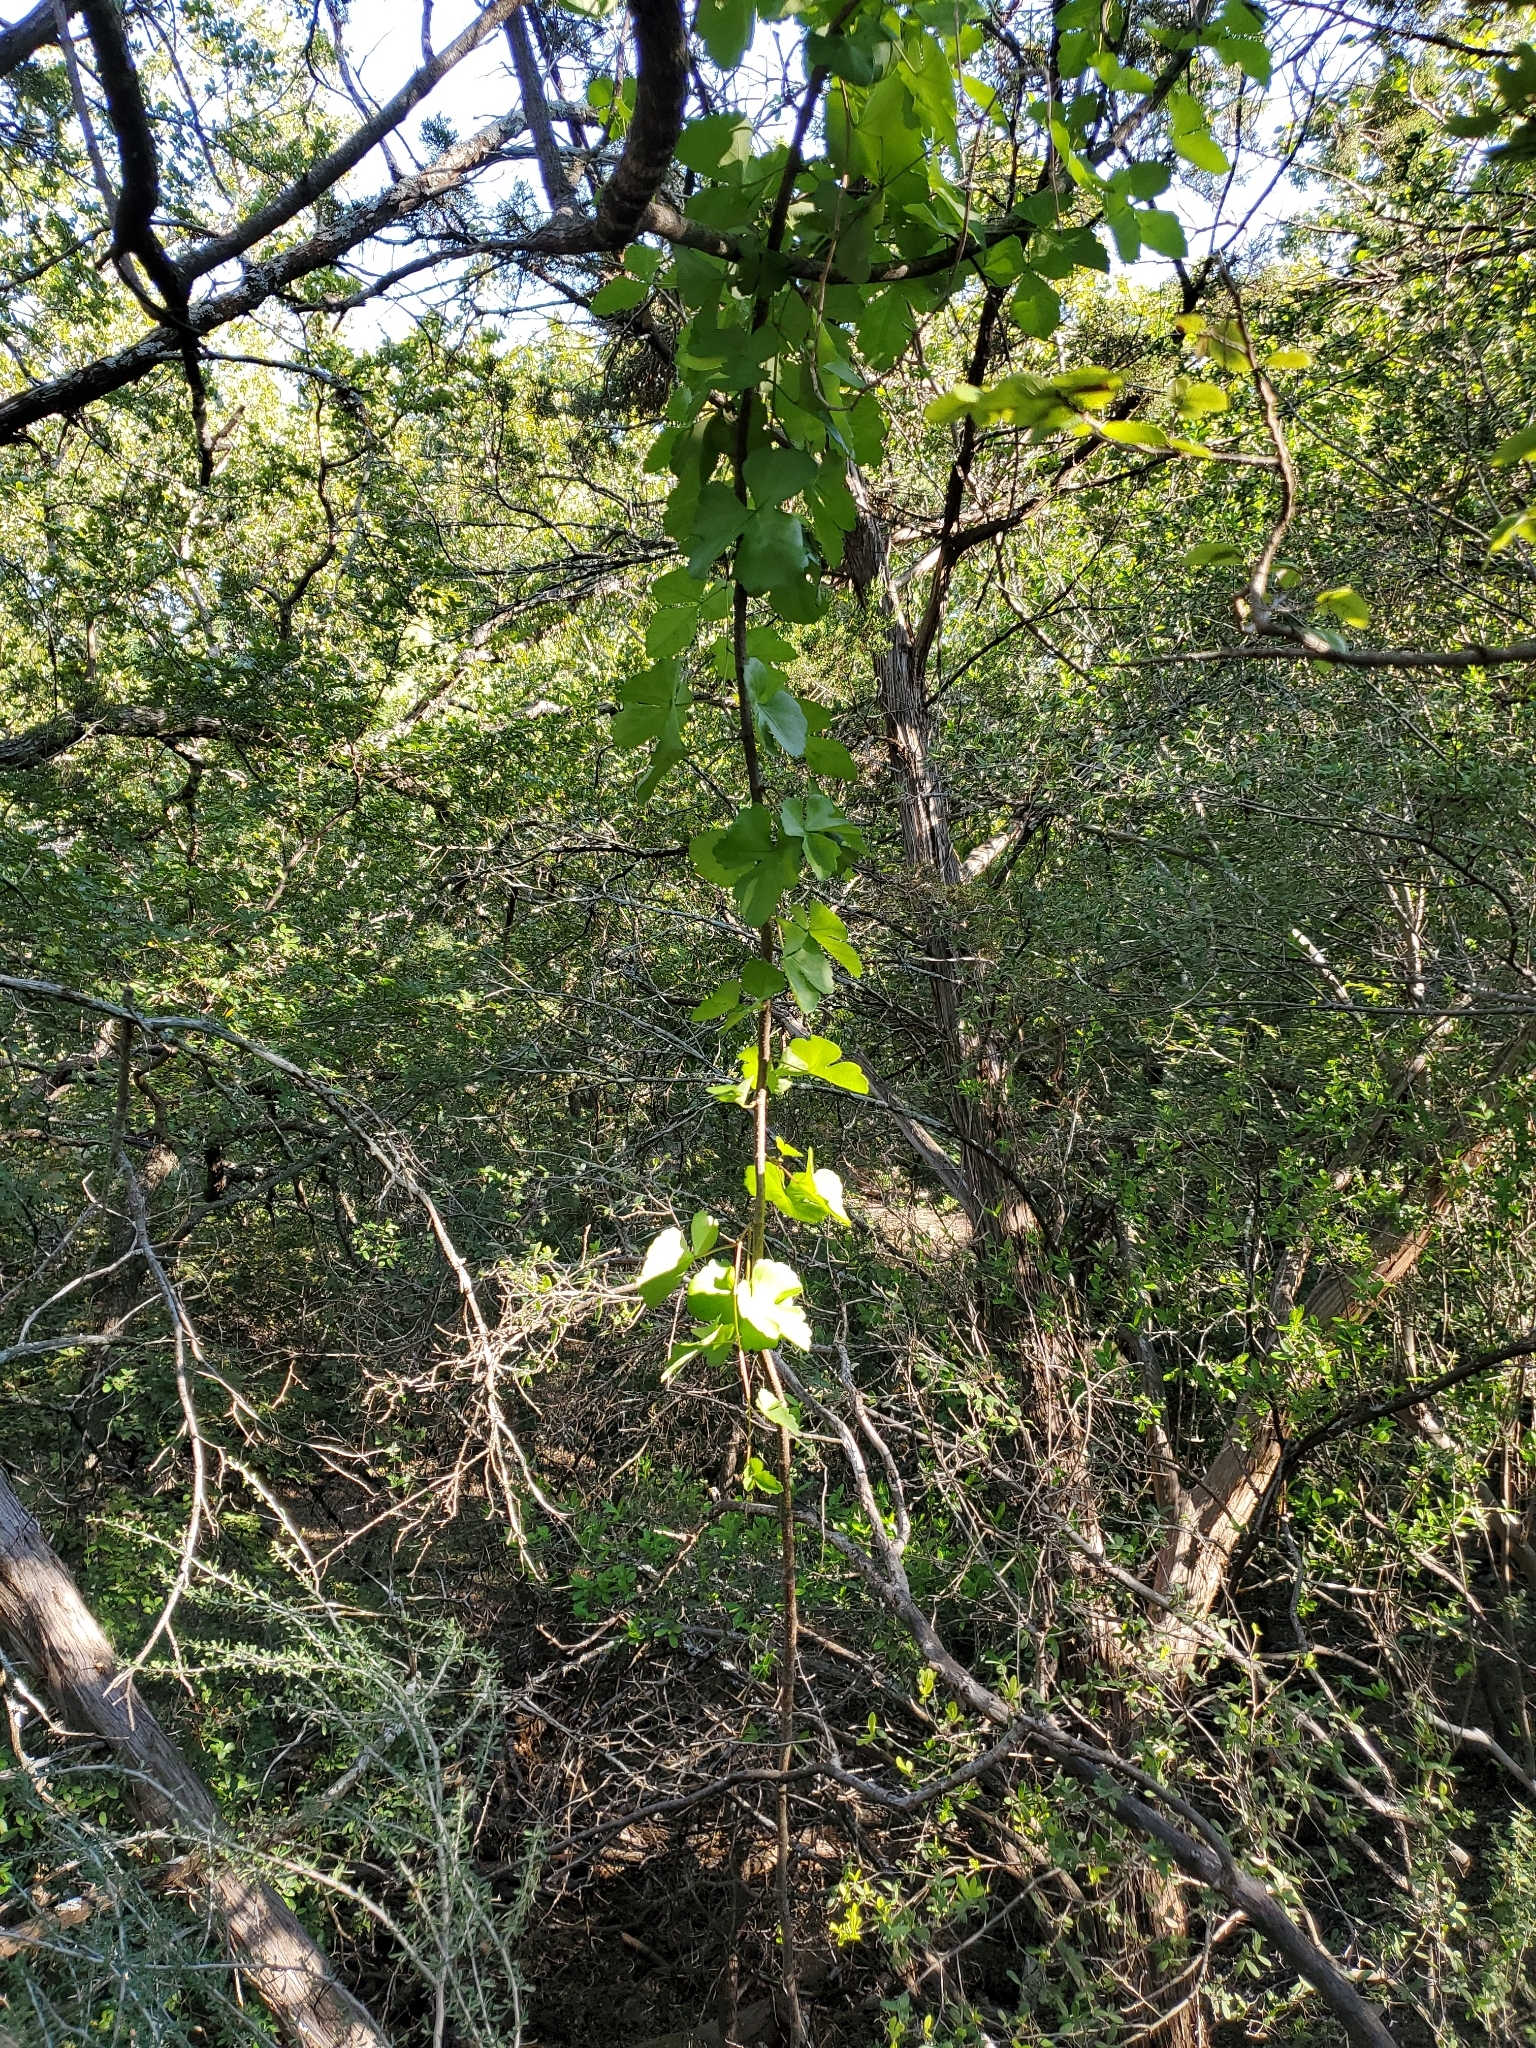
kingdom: Plantae
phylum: Tracheophyta
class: Magnoliopsida
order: Vitales
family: Vitaceae
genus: Cissus
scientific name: Cissus trifoliata
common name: Vine-sorrel
